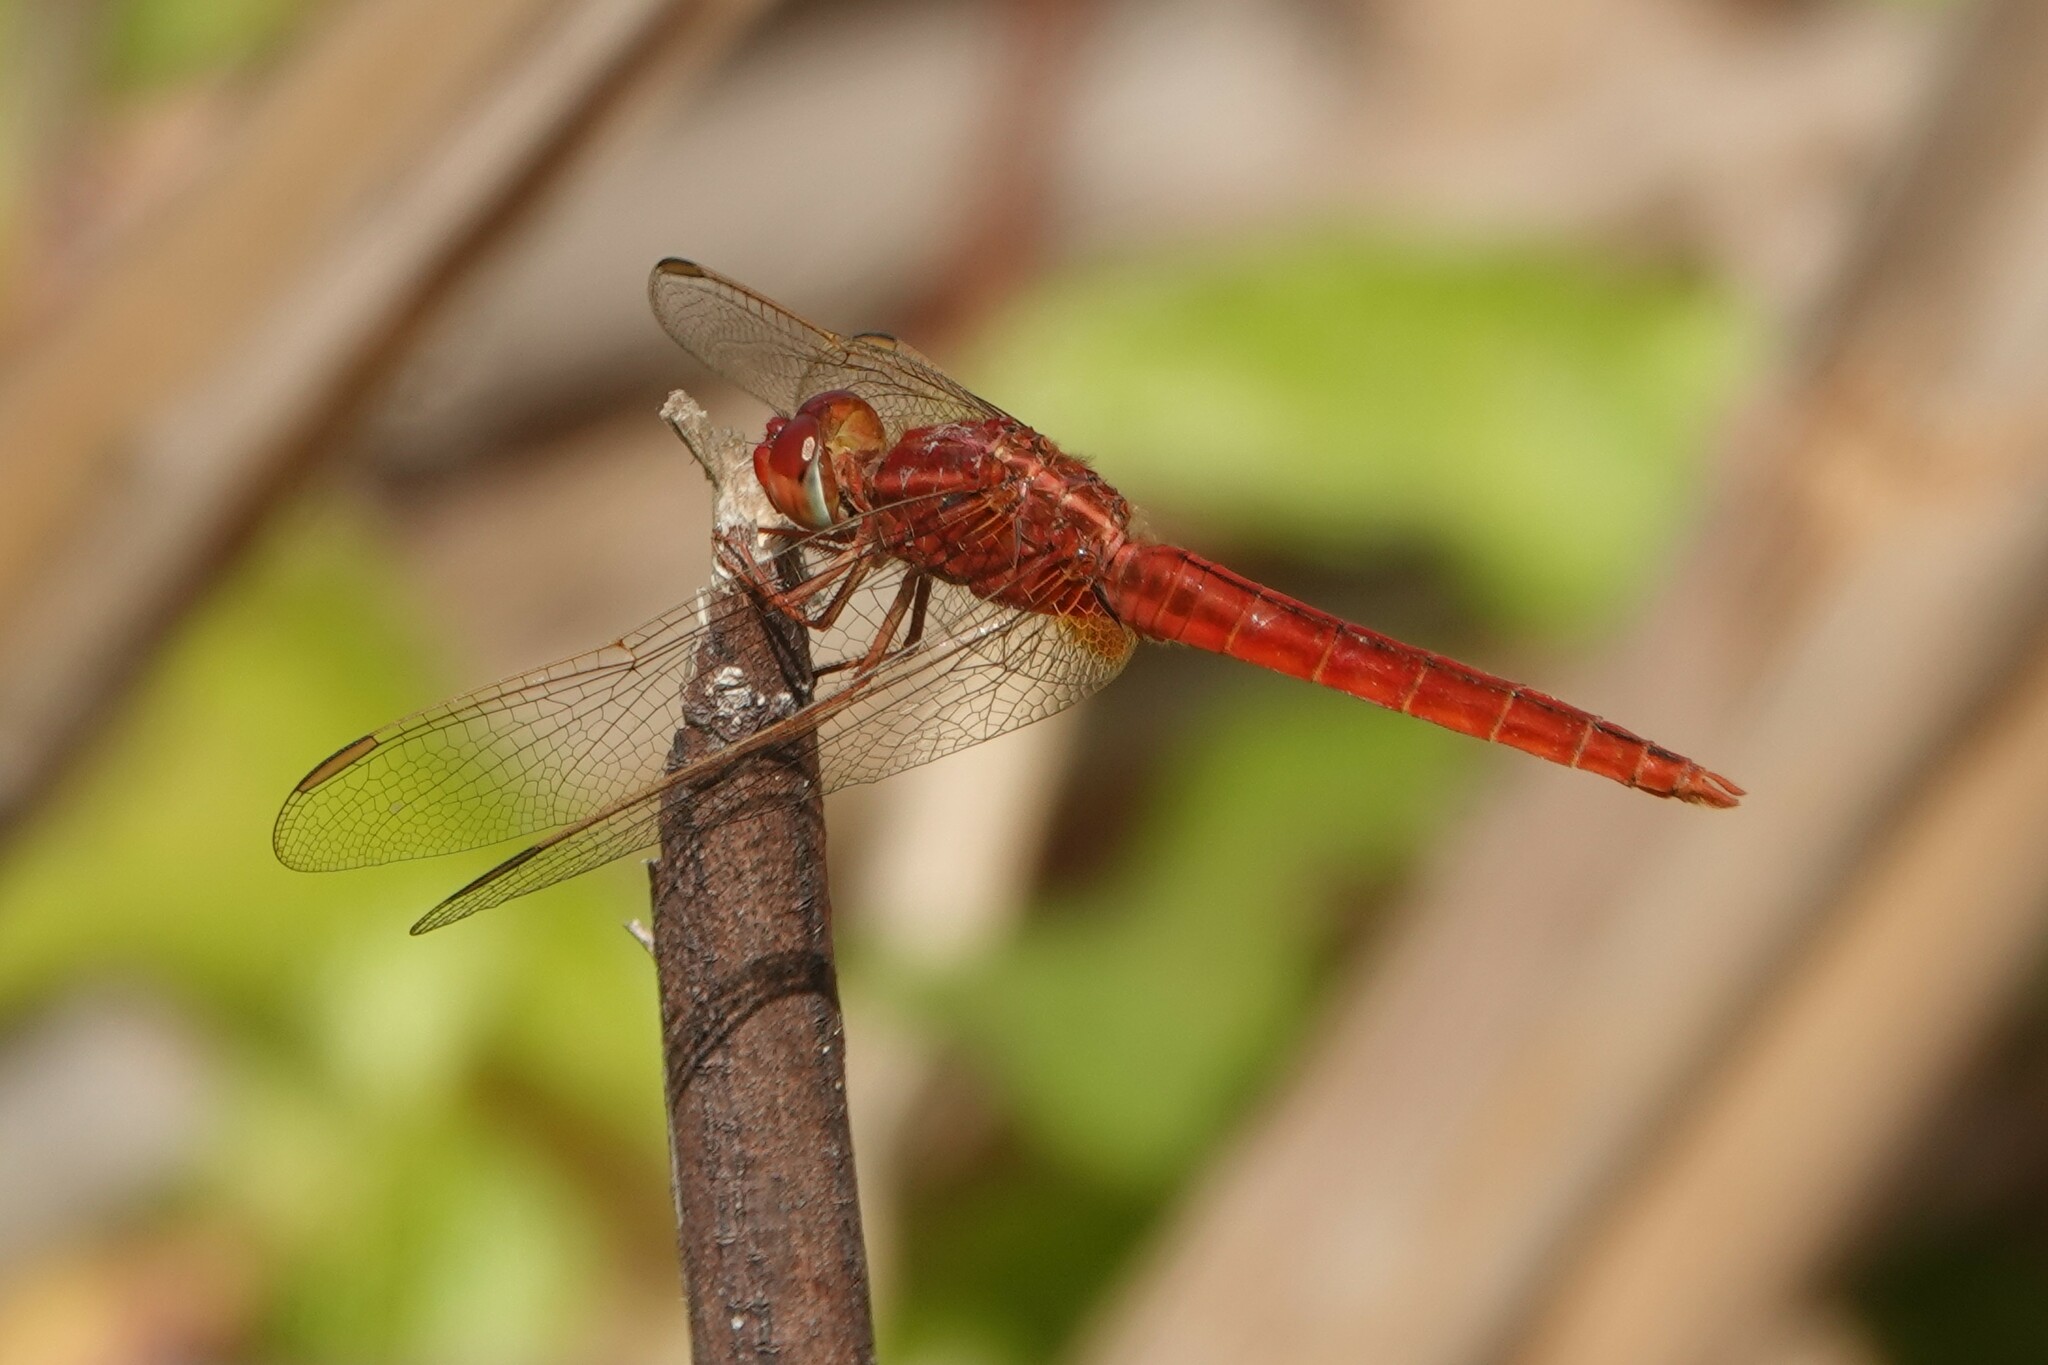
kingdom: Animalia
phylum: Arthropoda
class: Insecta
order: Odonata
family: Libellulidae
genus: Crocothemis
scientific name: Crocothemis servilia
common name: Scarlet skimmer
